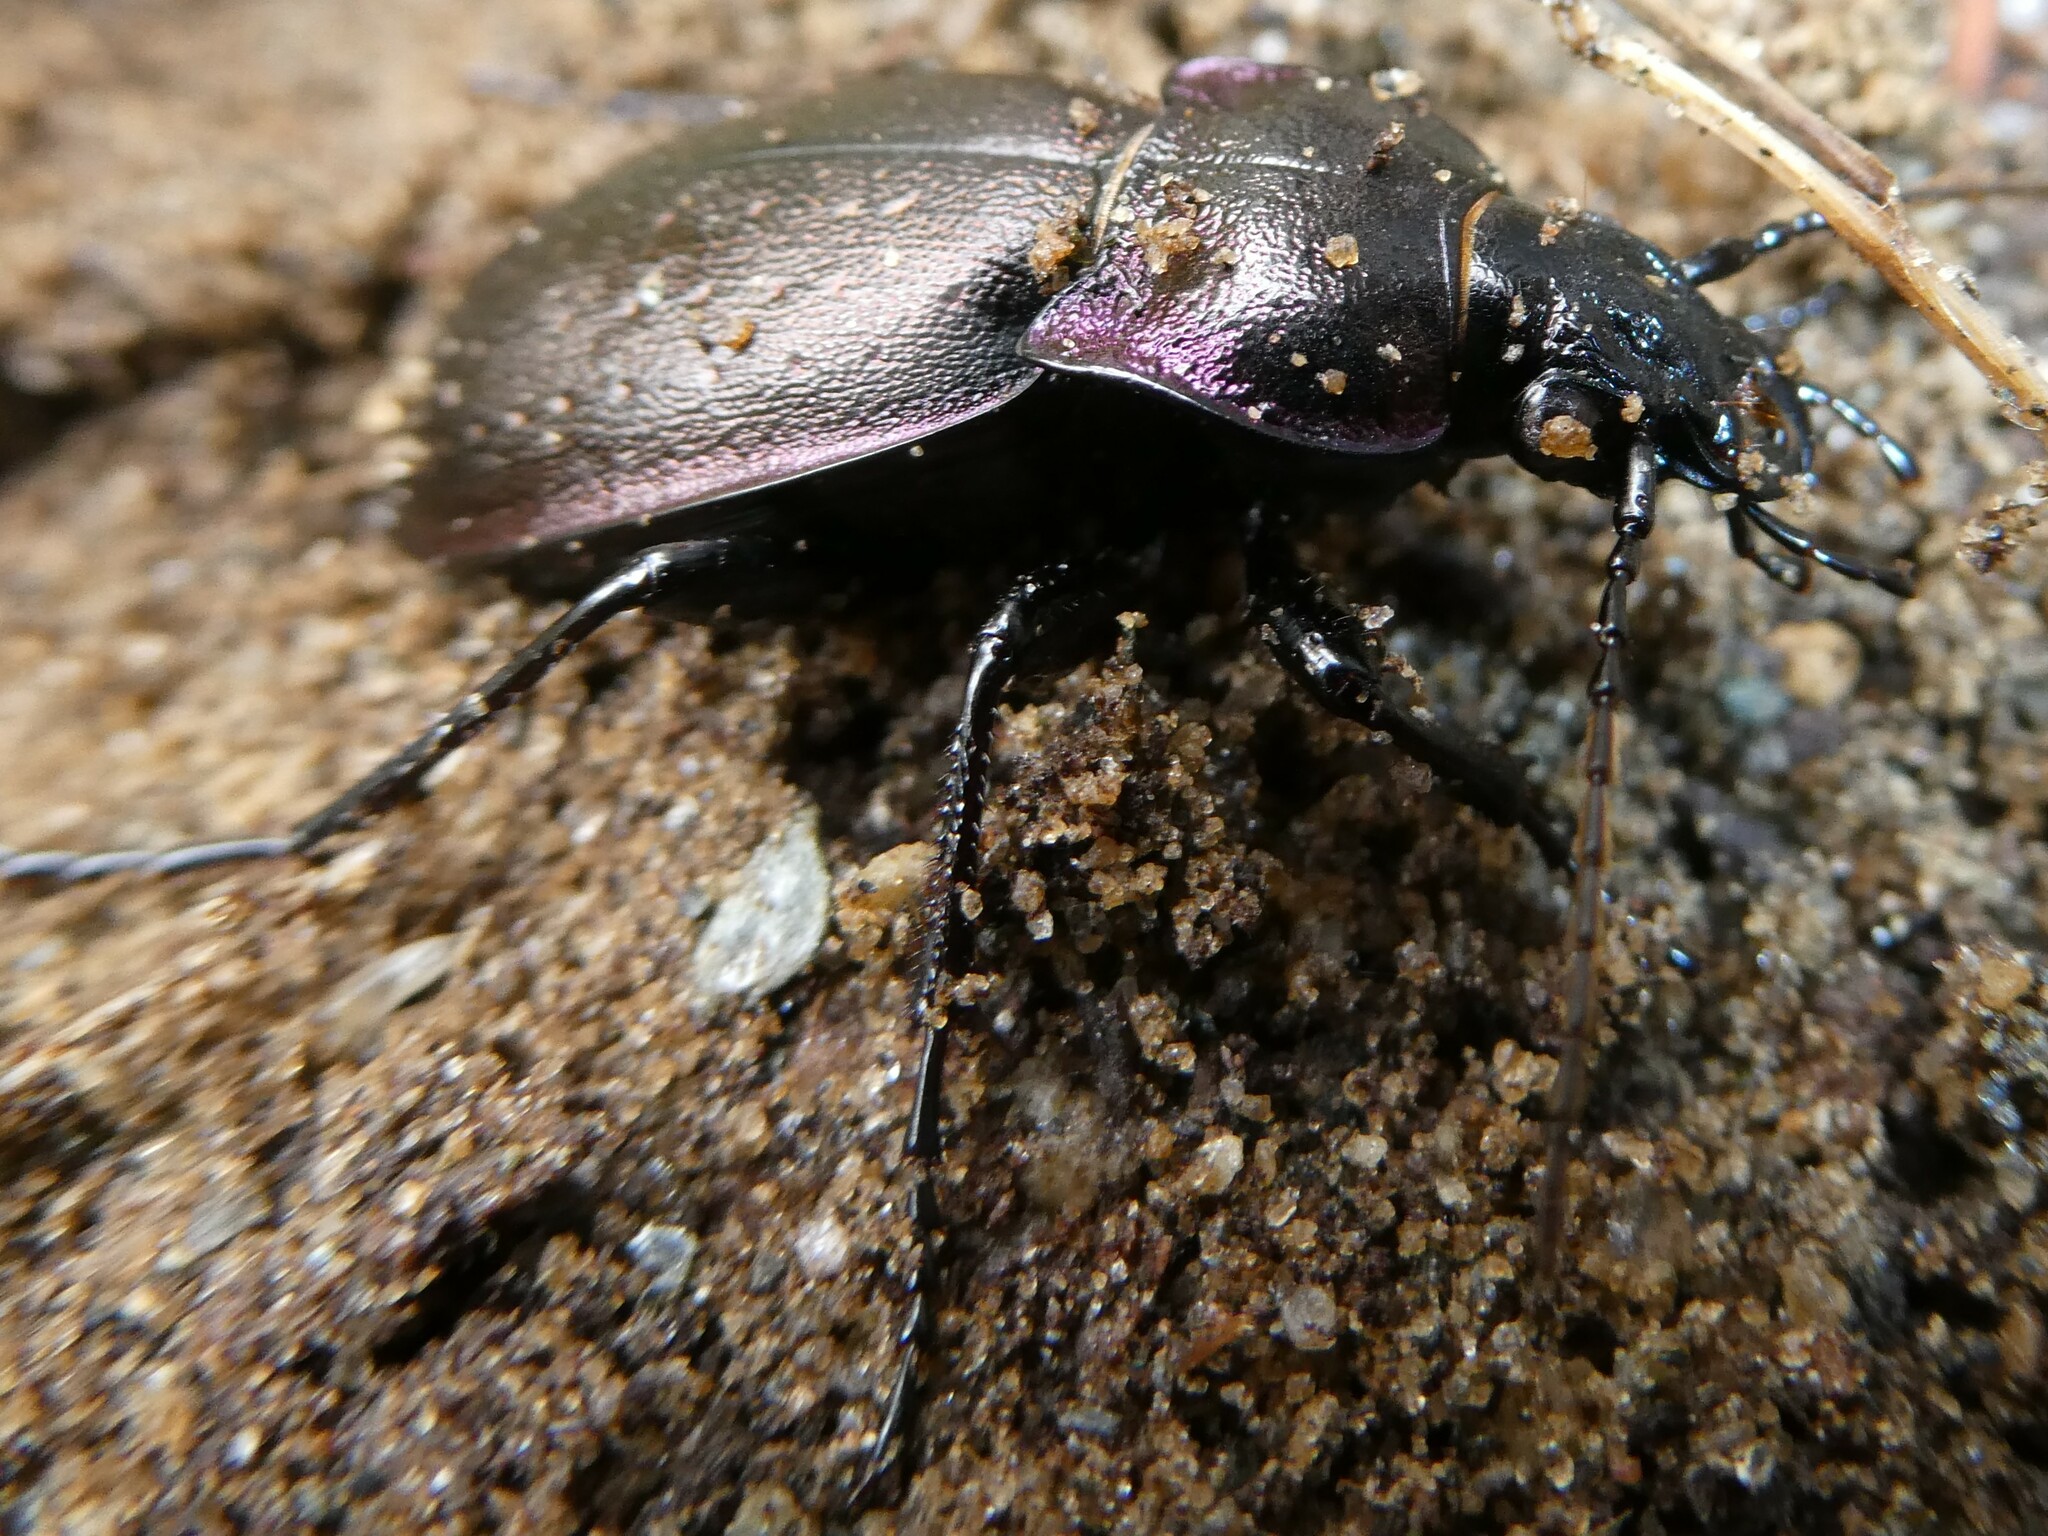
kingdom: Animalia
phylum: Arthropoda
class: Insecta
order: Coleoptera
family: Carabidae
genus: Carabus
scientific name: Carabus nemoralis
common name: European ground beetle
